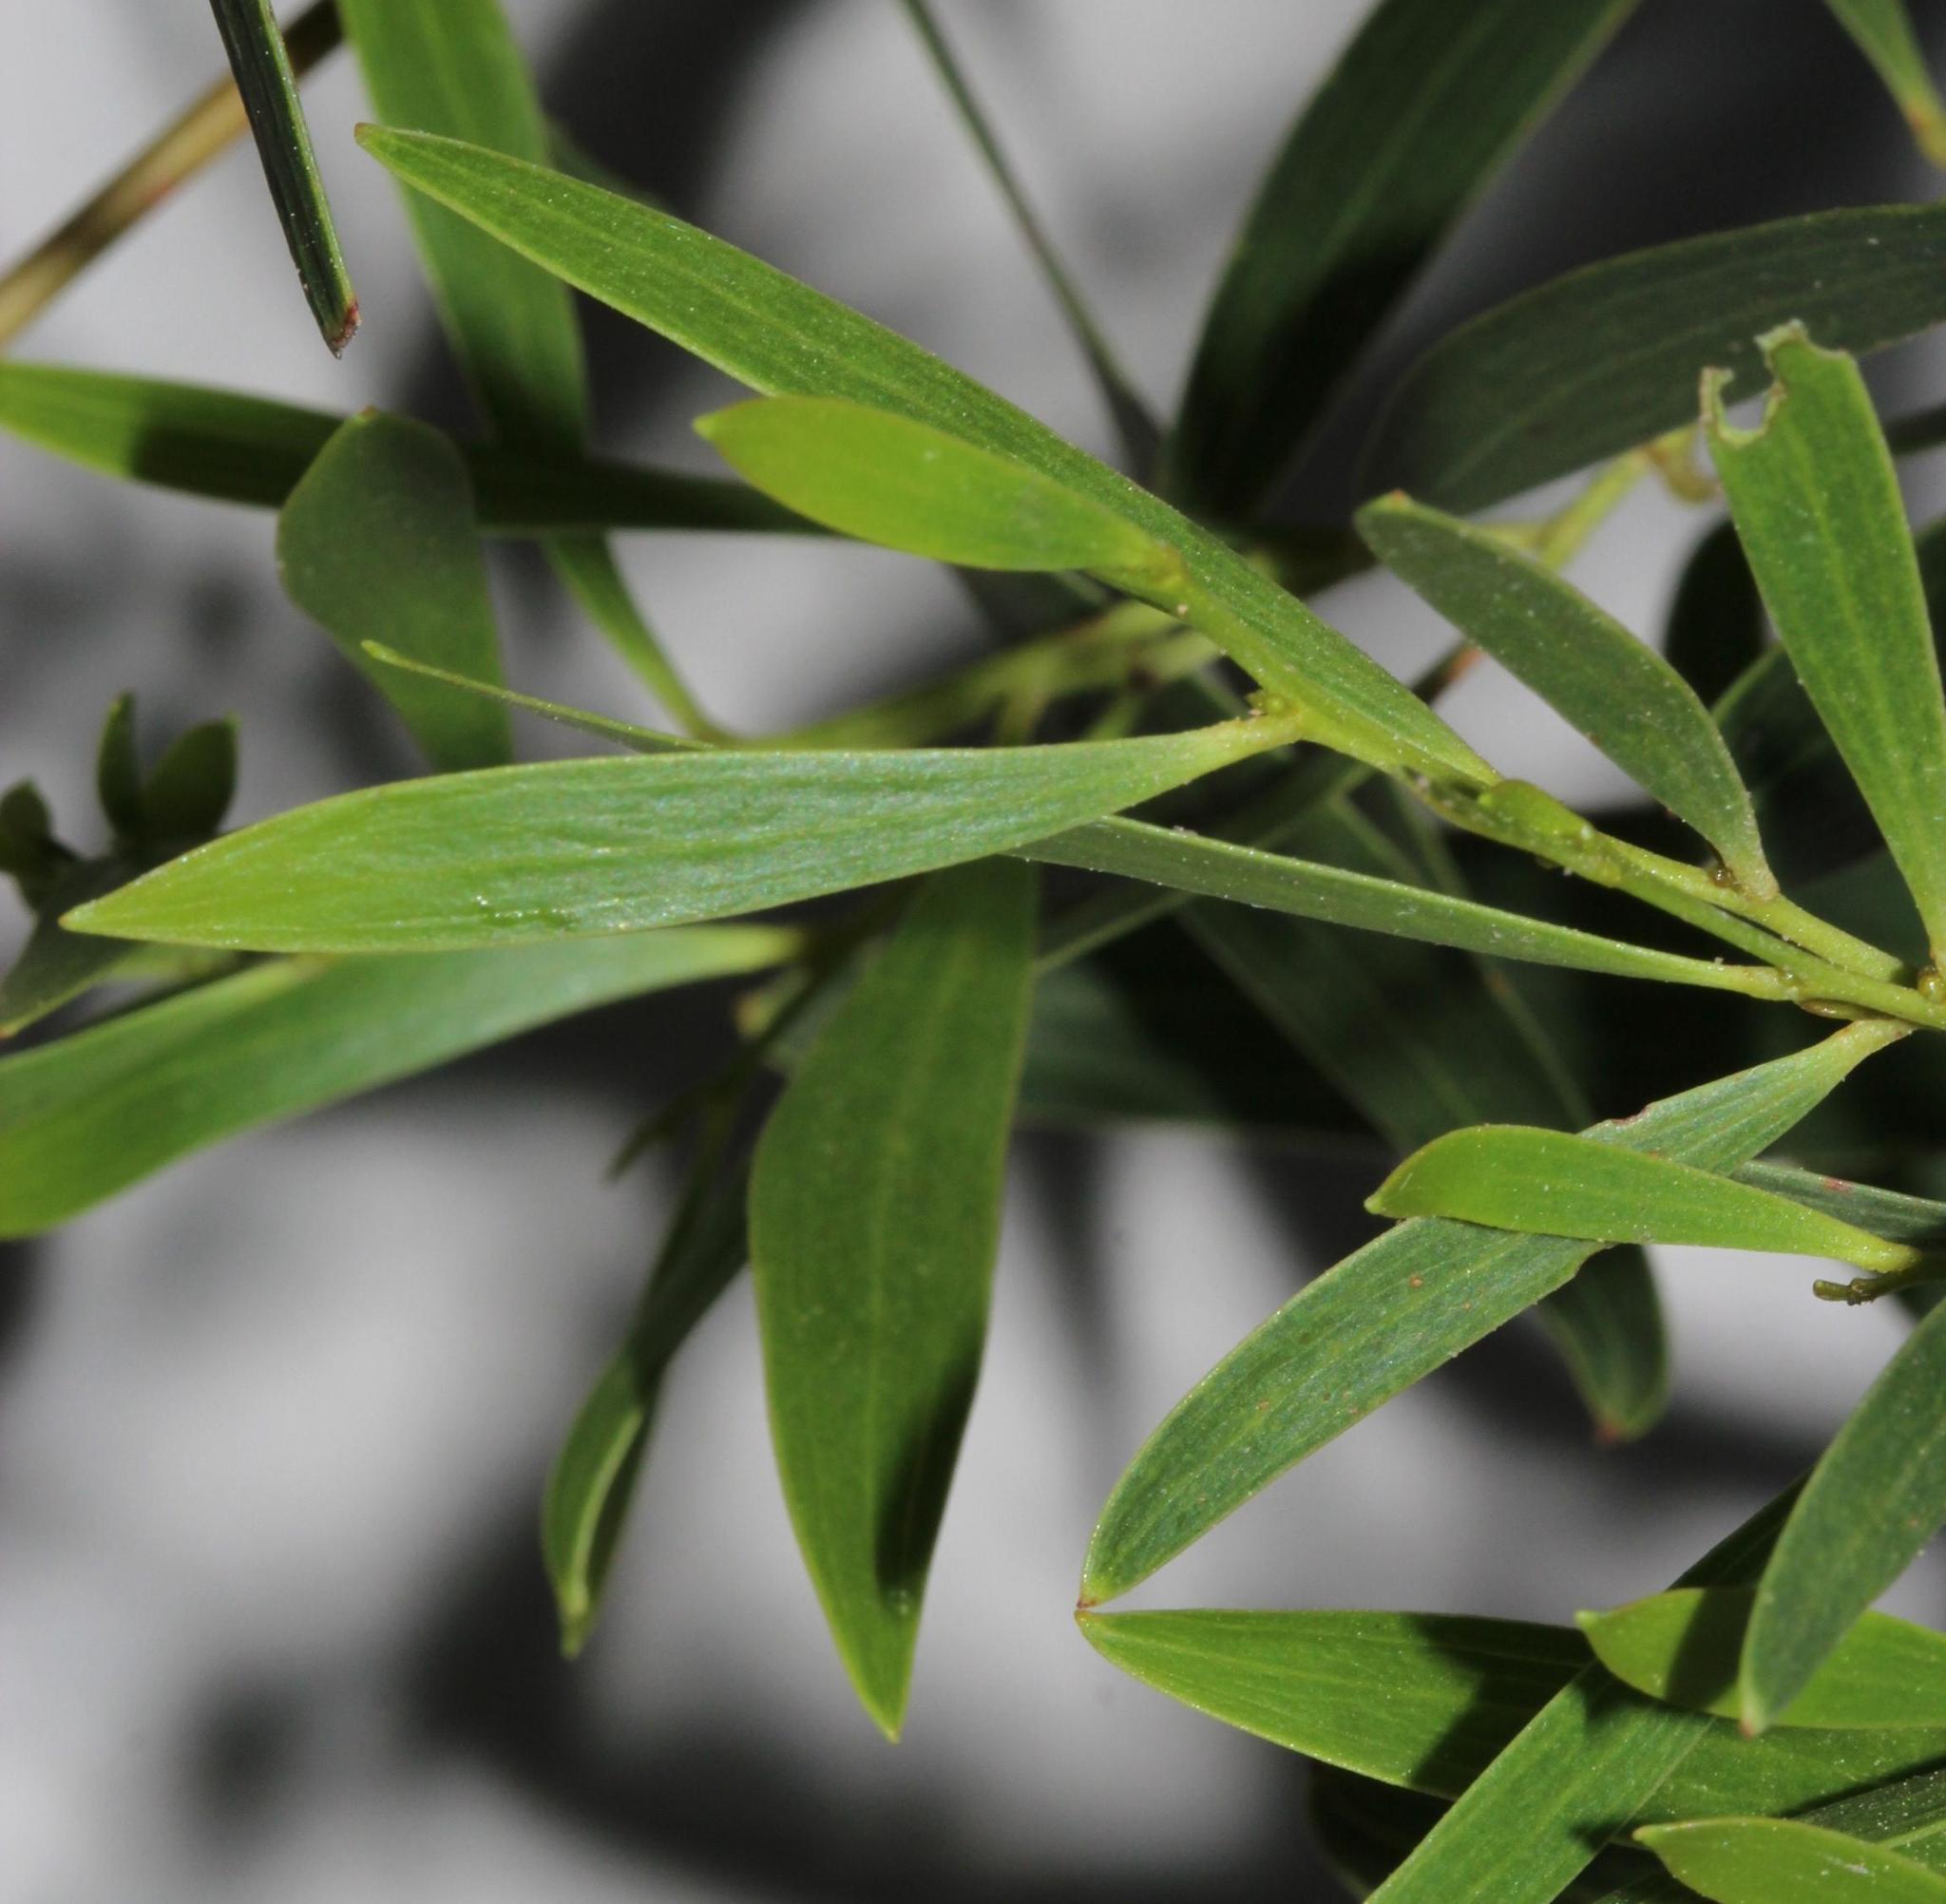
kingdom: Plantae
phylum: Tracheophyta
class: Magnoliopsida
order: Fabales
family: Fabaceae
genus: Acacia
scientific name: Acacia melanoxylon
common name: Blackwood
